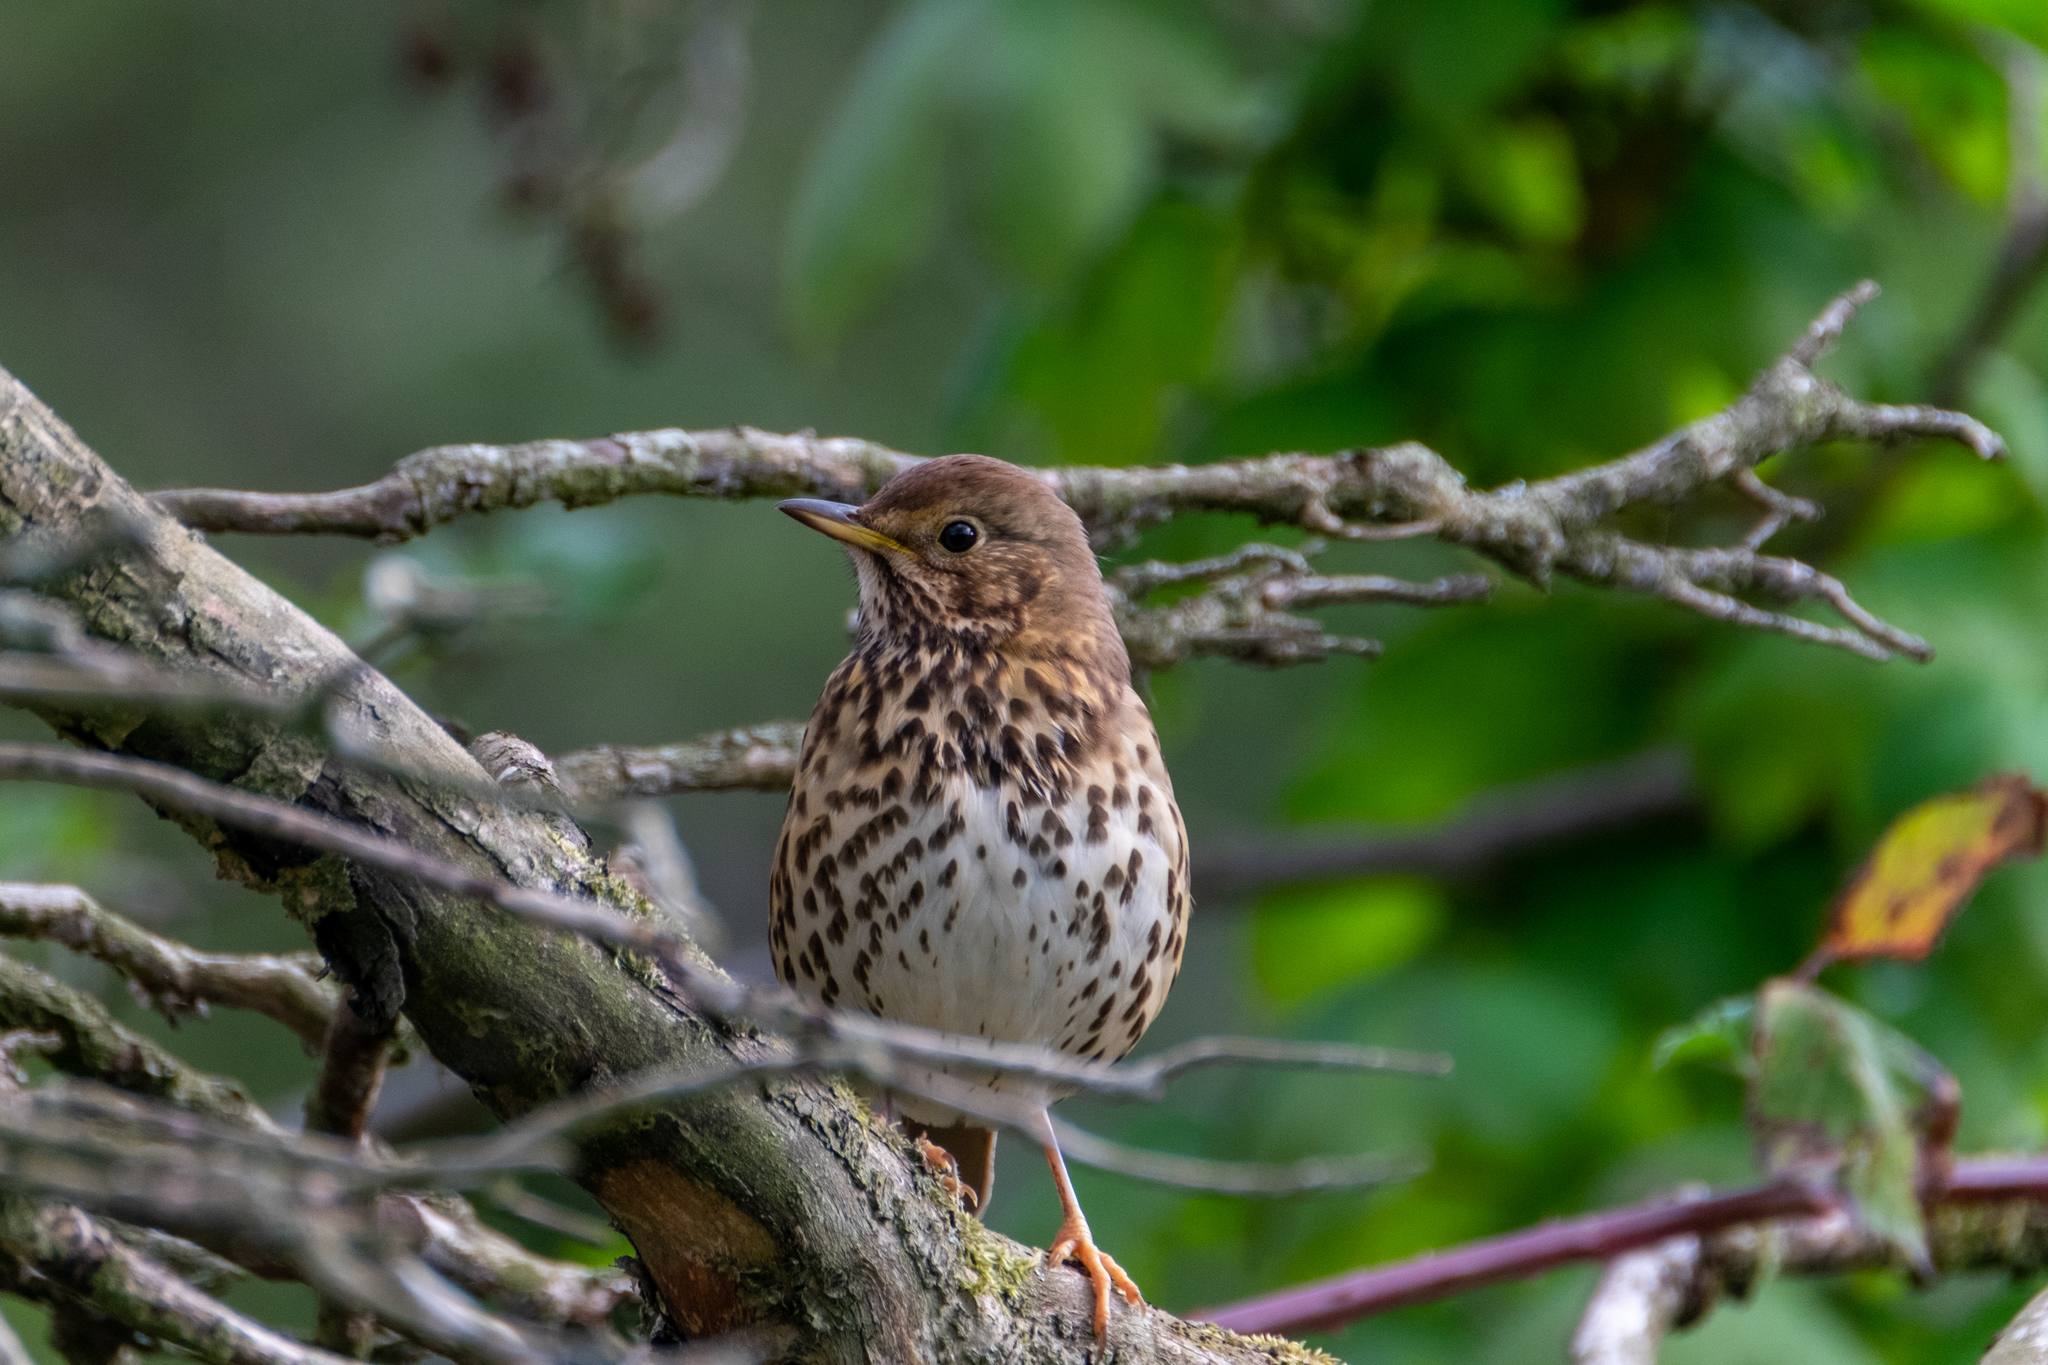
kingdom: Animalia
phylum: Chordata
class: Aves
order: Passeriformes
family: Turdidae
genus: Turdus
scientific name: Turdus philomelos
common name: Song thrush
